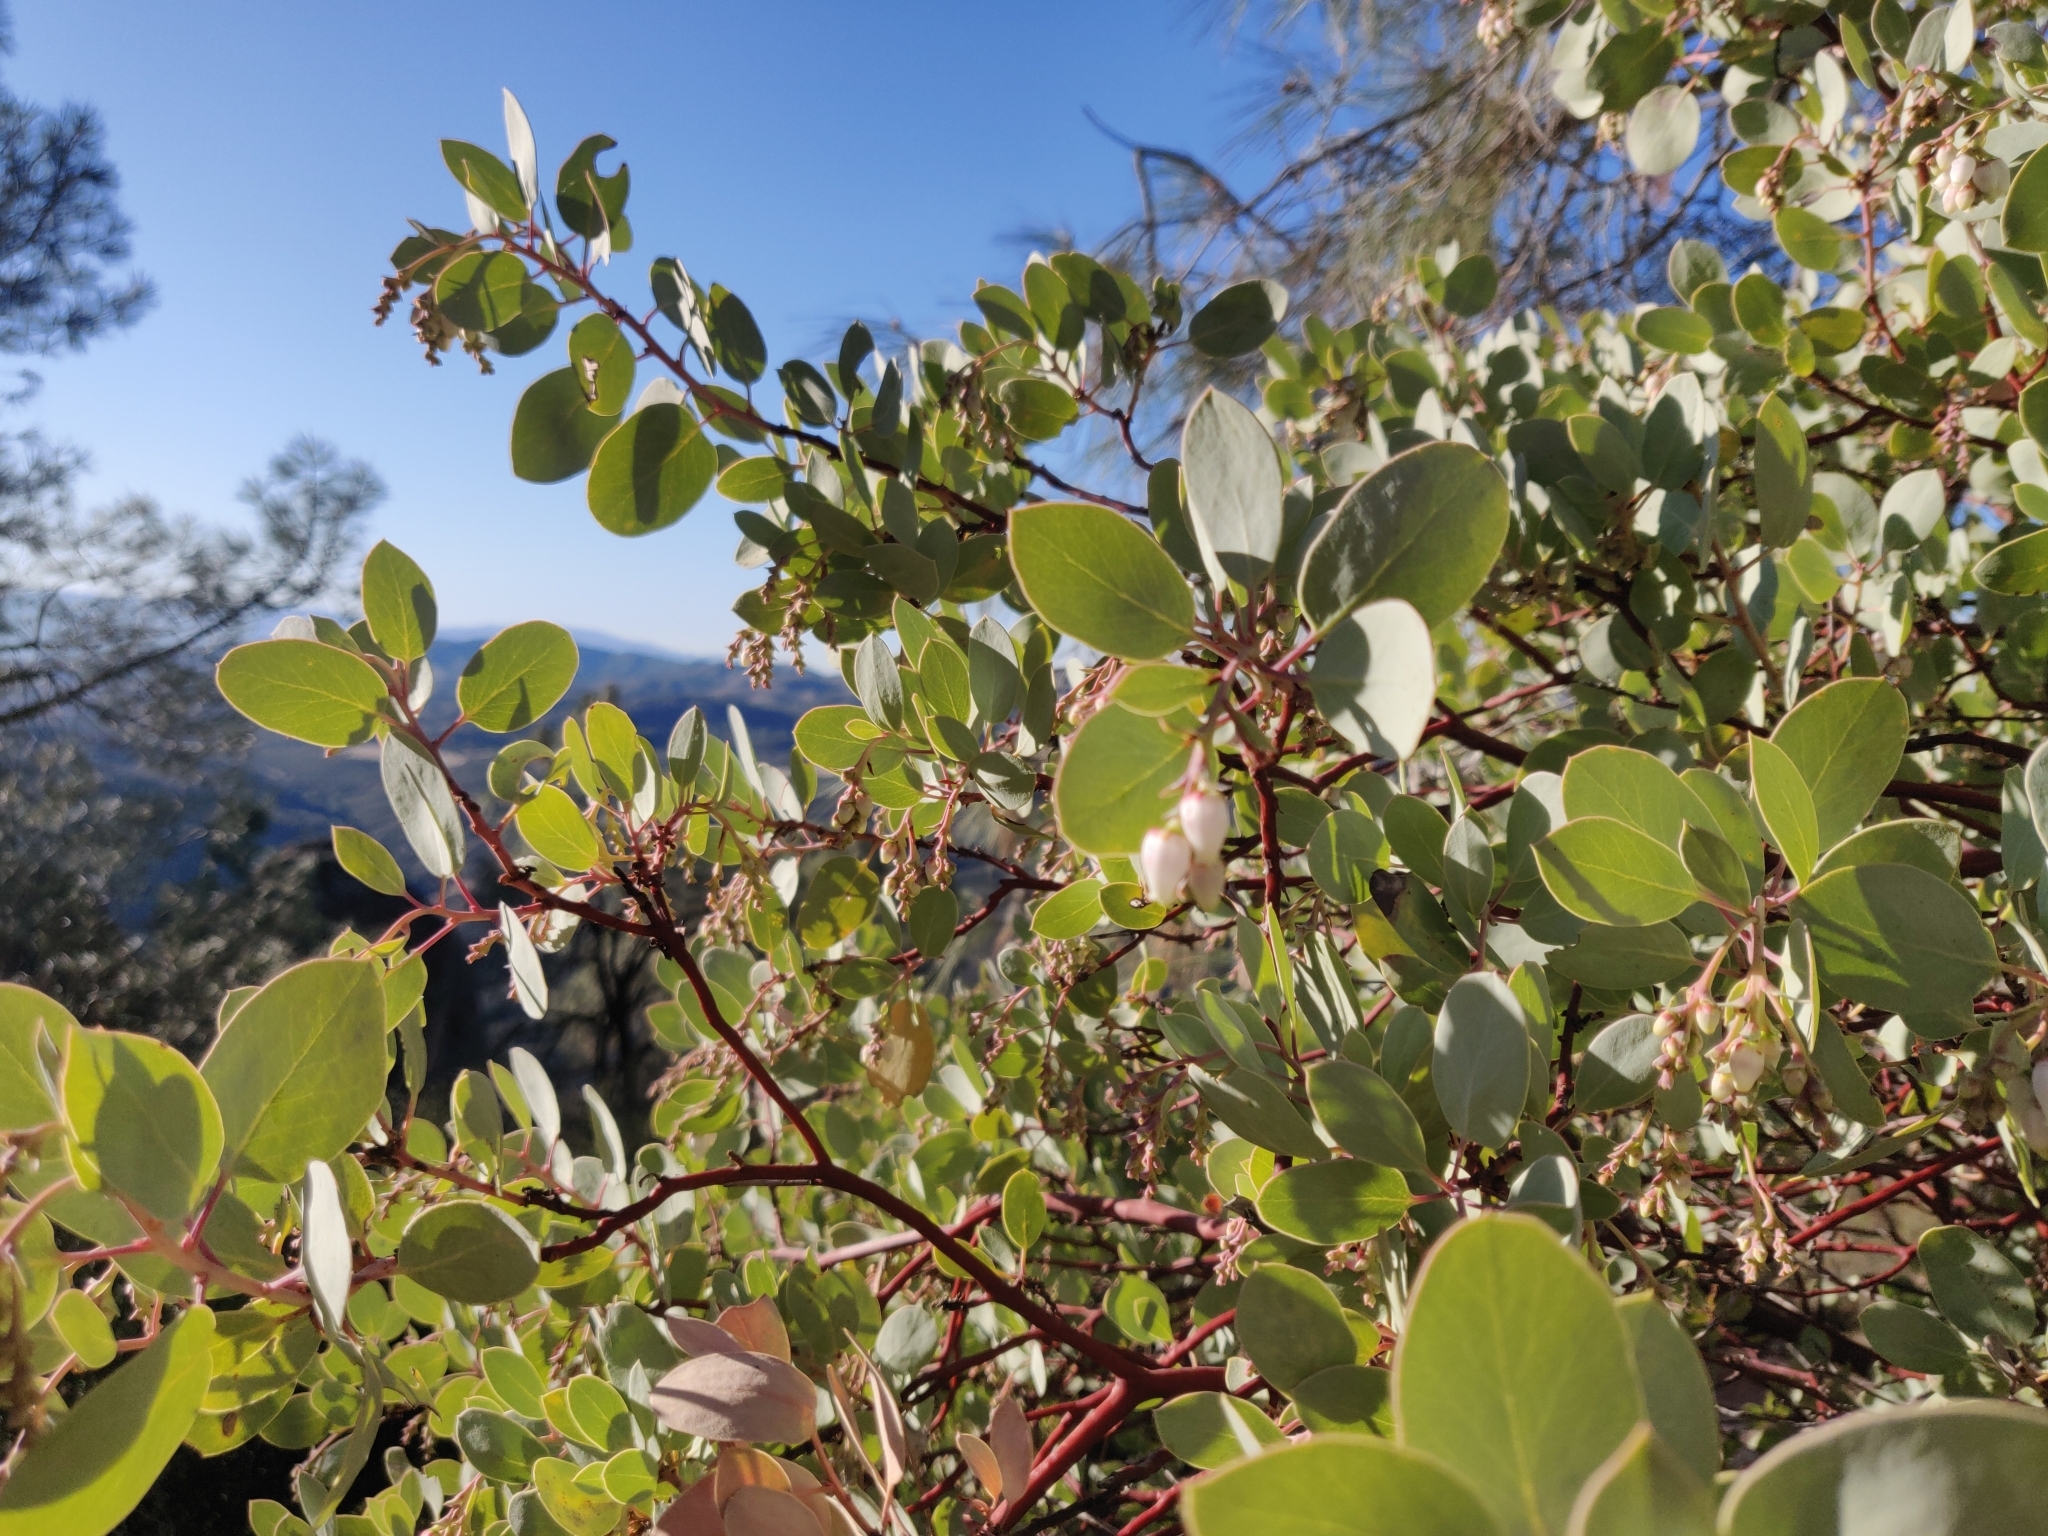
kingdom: Plantae
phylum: Tracheophyta
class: Magnoliopsida
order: Ericales
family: Ericaceae
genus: Arctostaphylos
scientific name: Arctostaphylos glauca
